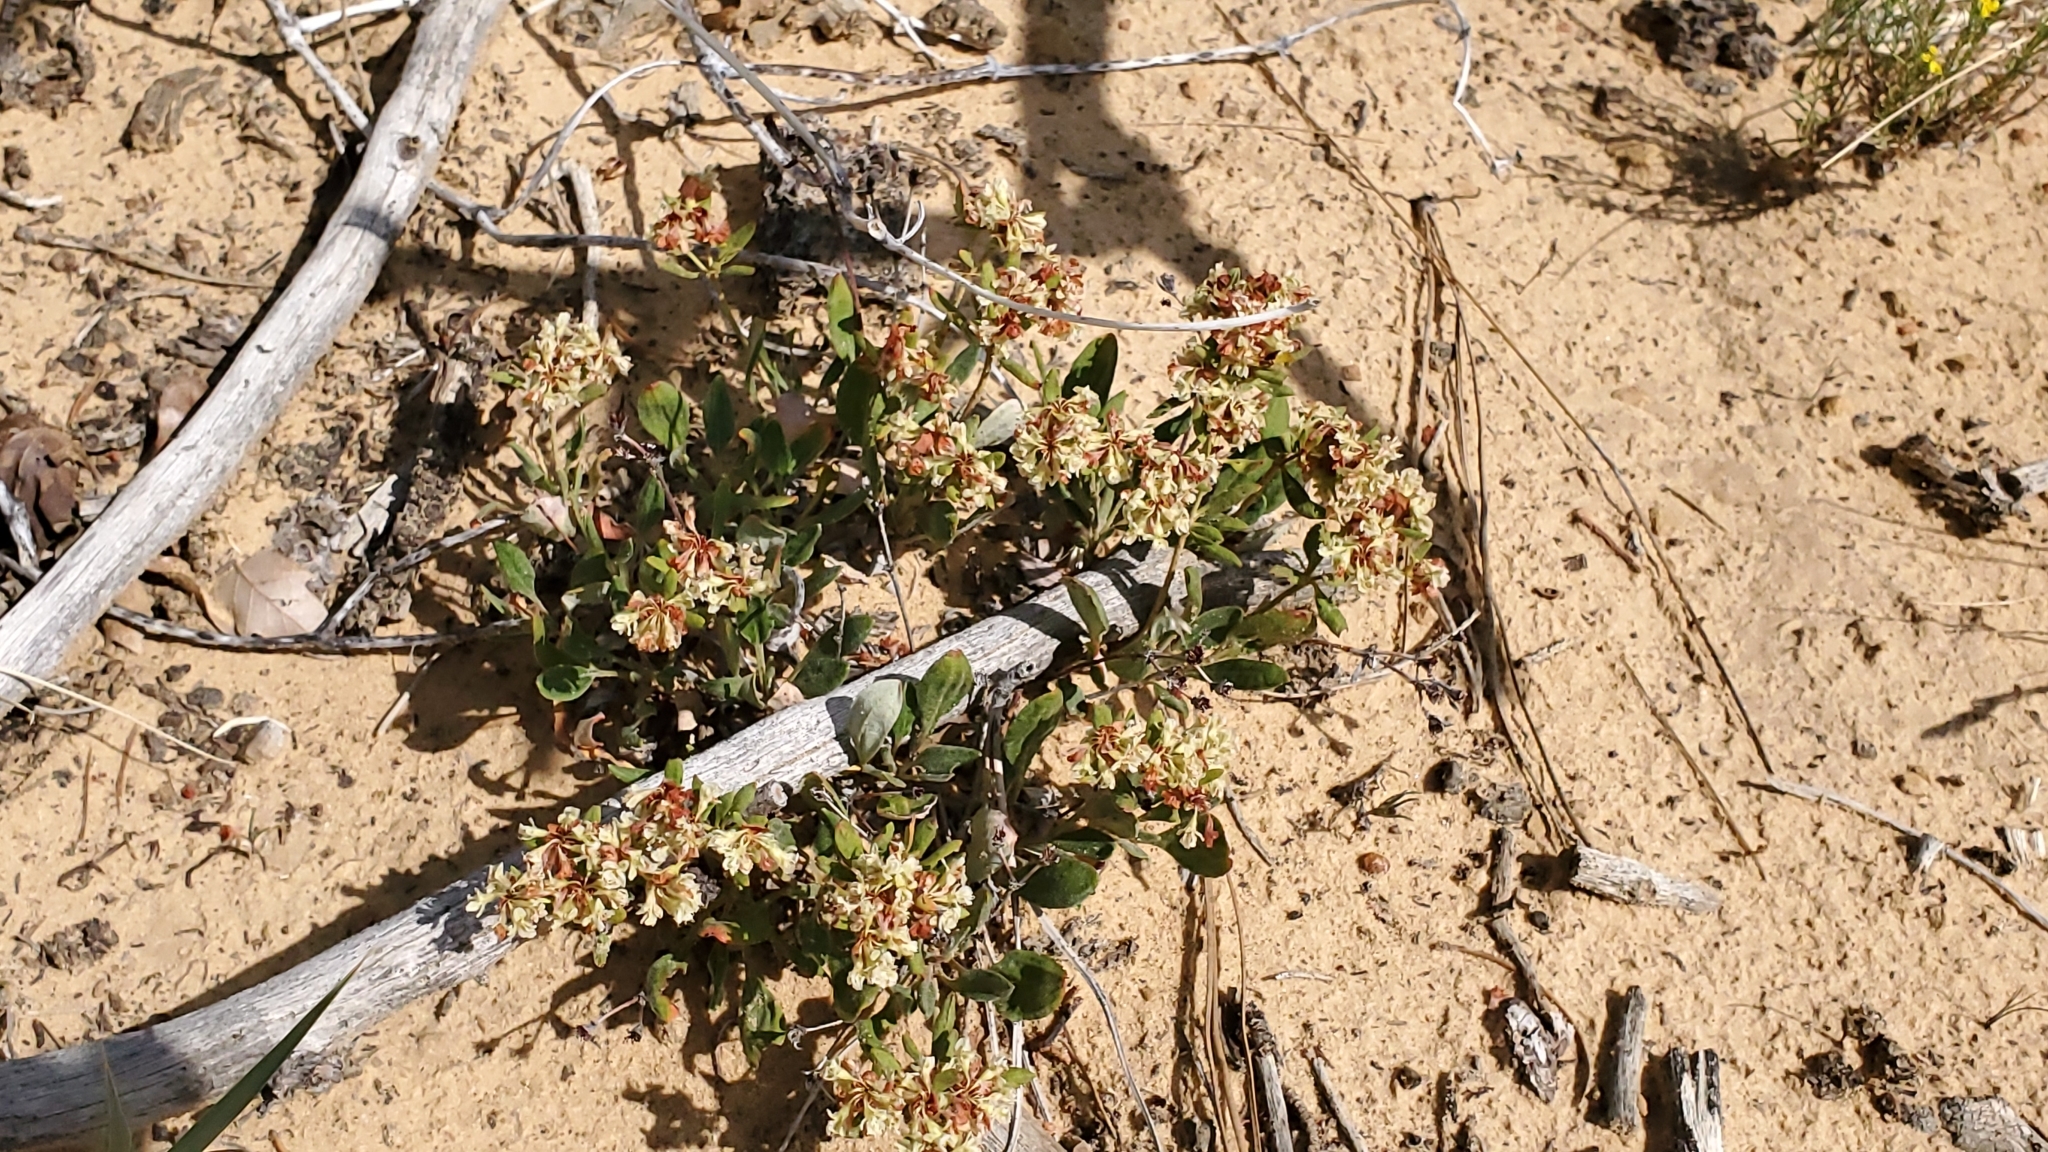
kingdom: Plantae
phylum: Tracheophyta
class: Magnoliopsida
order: Caryophyllales
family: Polygonaceae
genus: Eriogonum
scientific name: Eriogonum jamesii
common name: Antelope-sage
